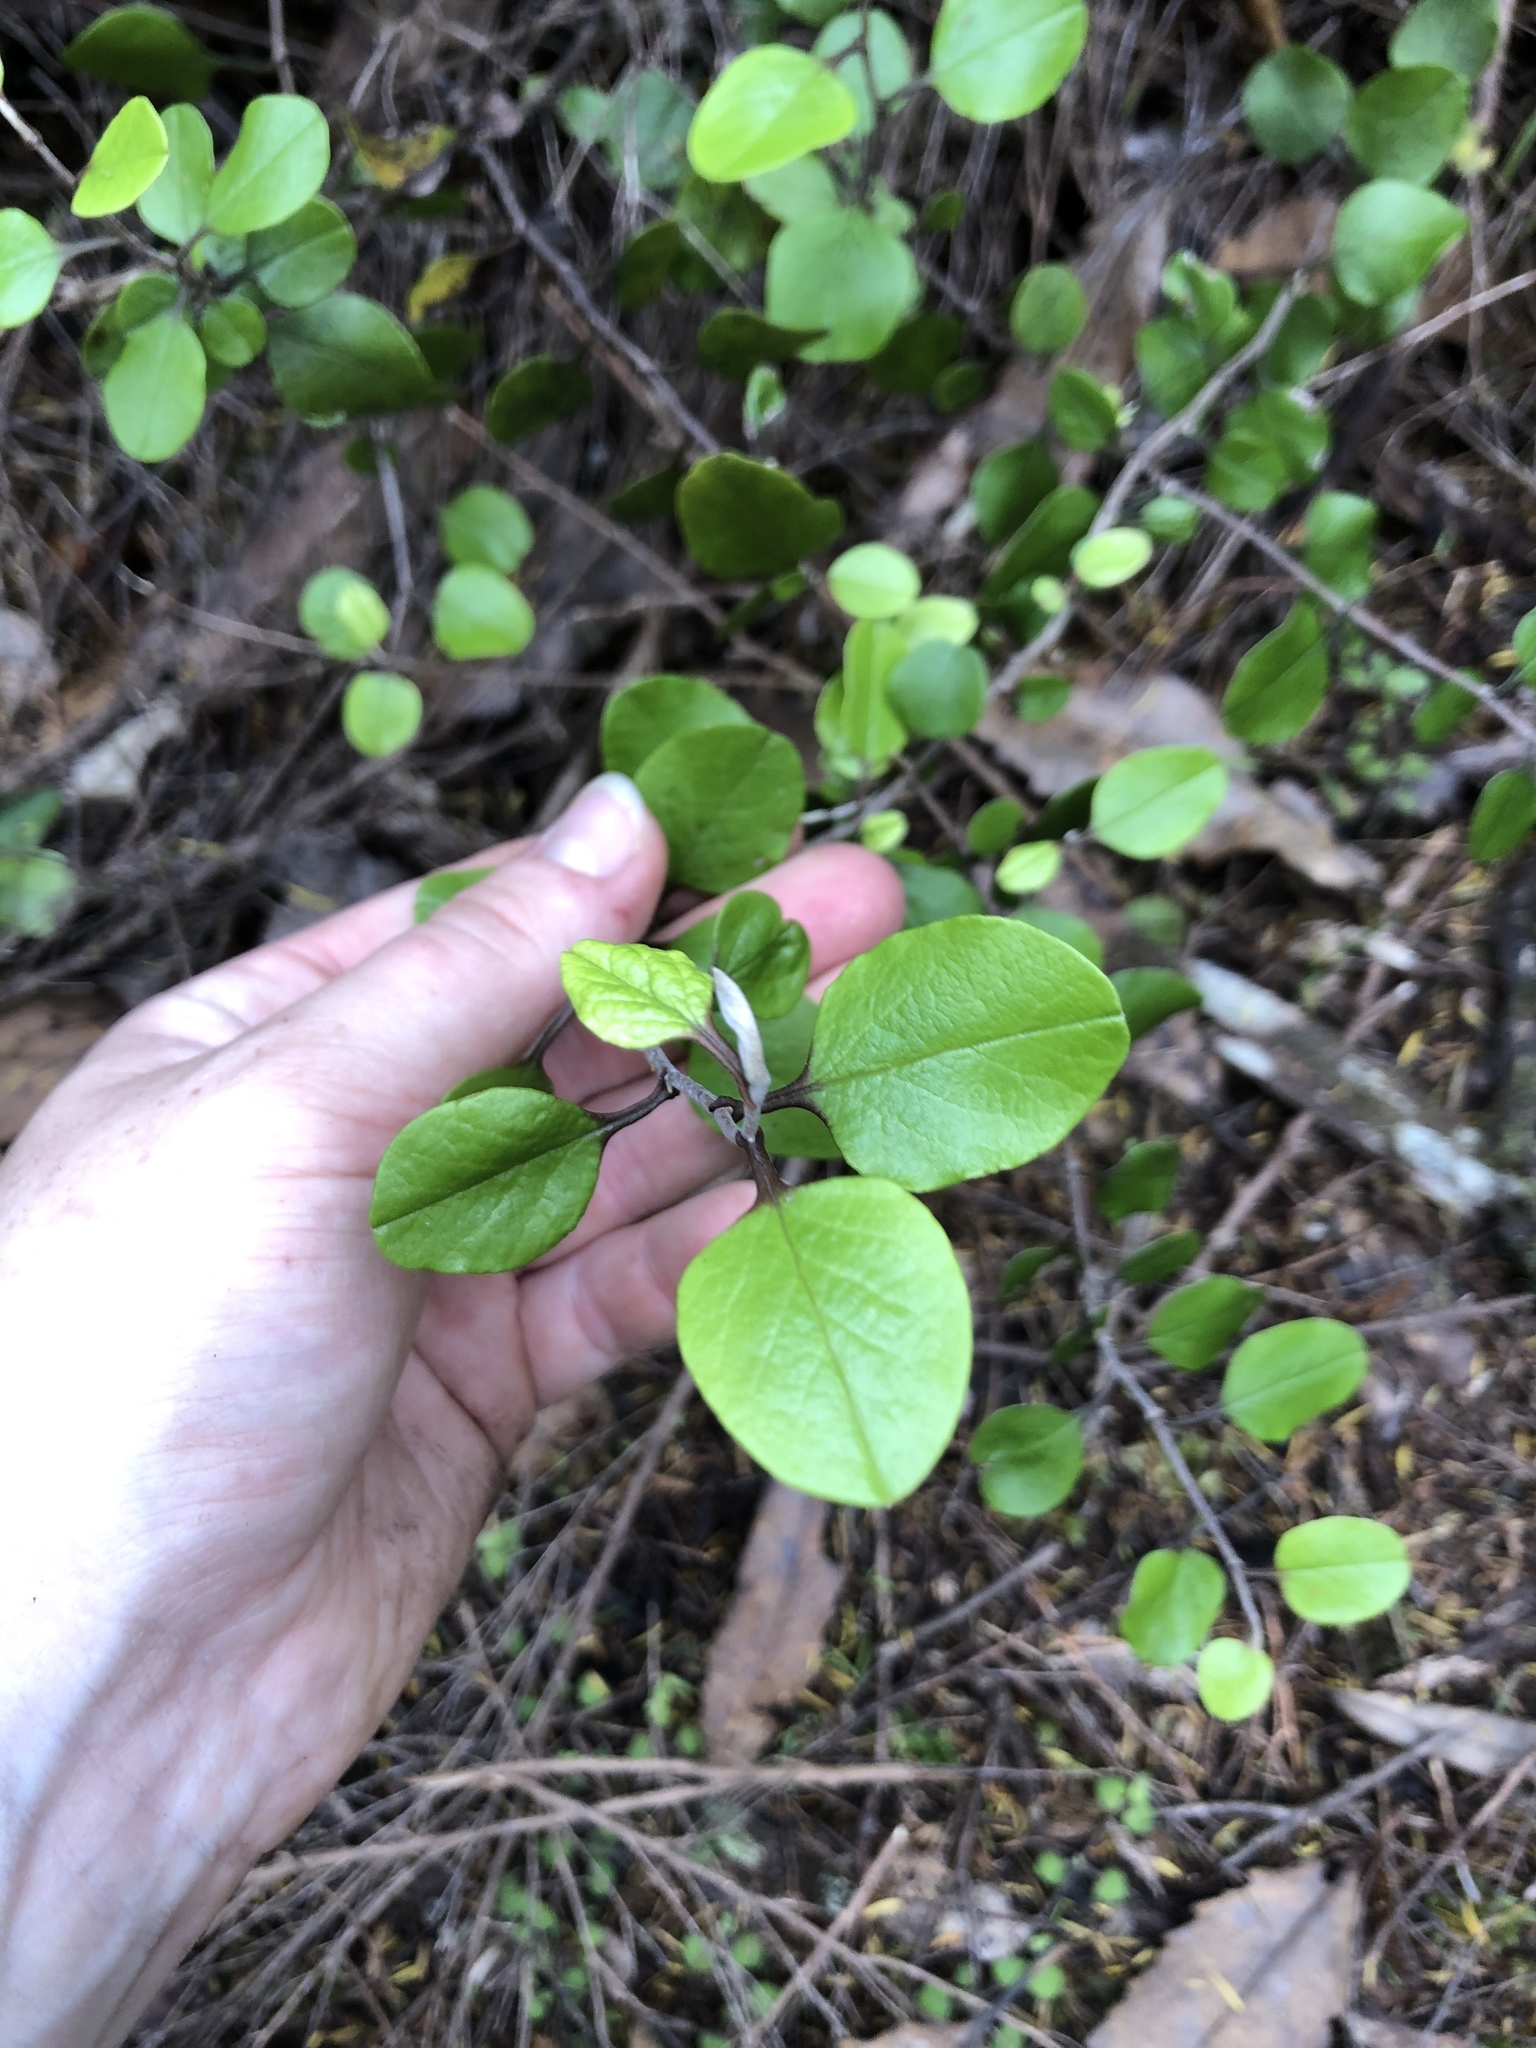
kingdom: Plantae
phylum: Tracheophyta
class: Magnoliopsida
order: Asterales
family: Asteraceae
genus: Ozothamnus
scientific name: Ozothamnus glomeratus
